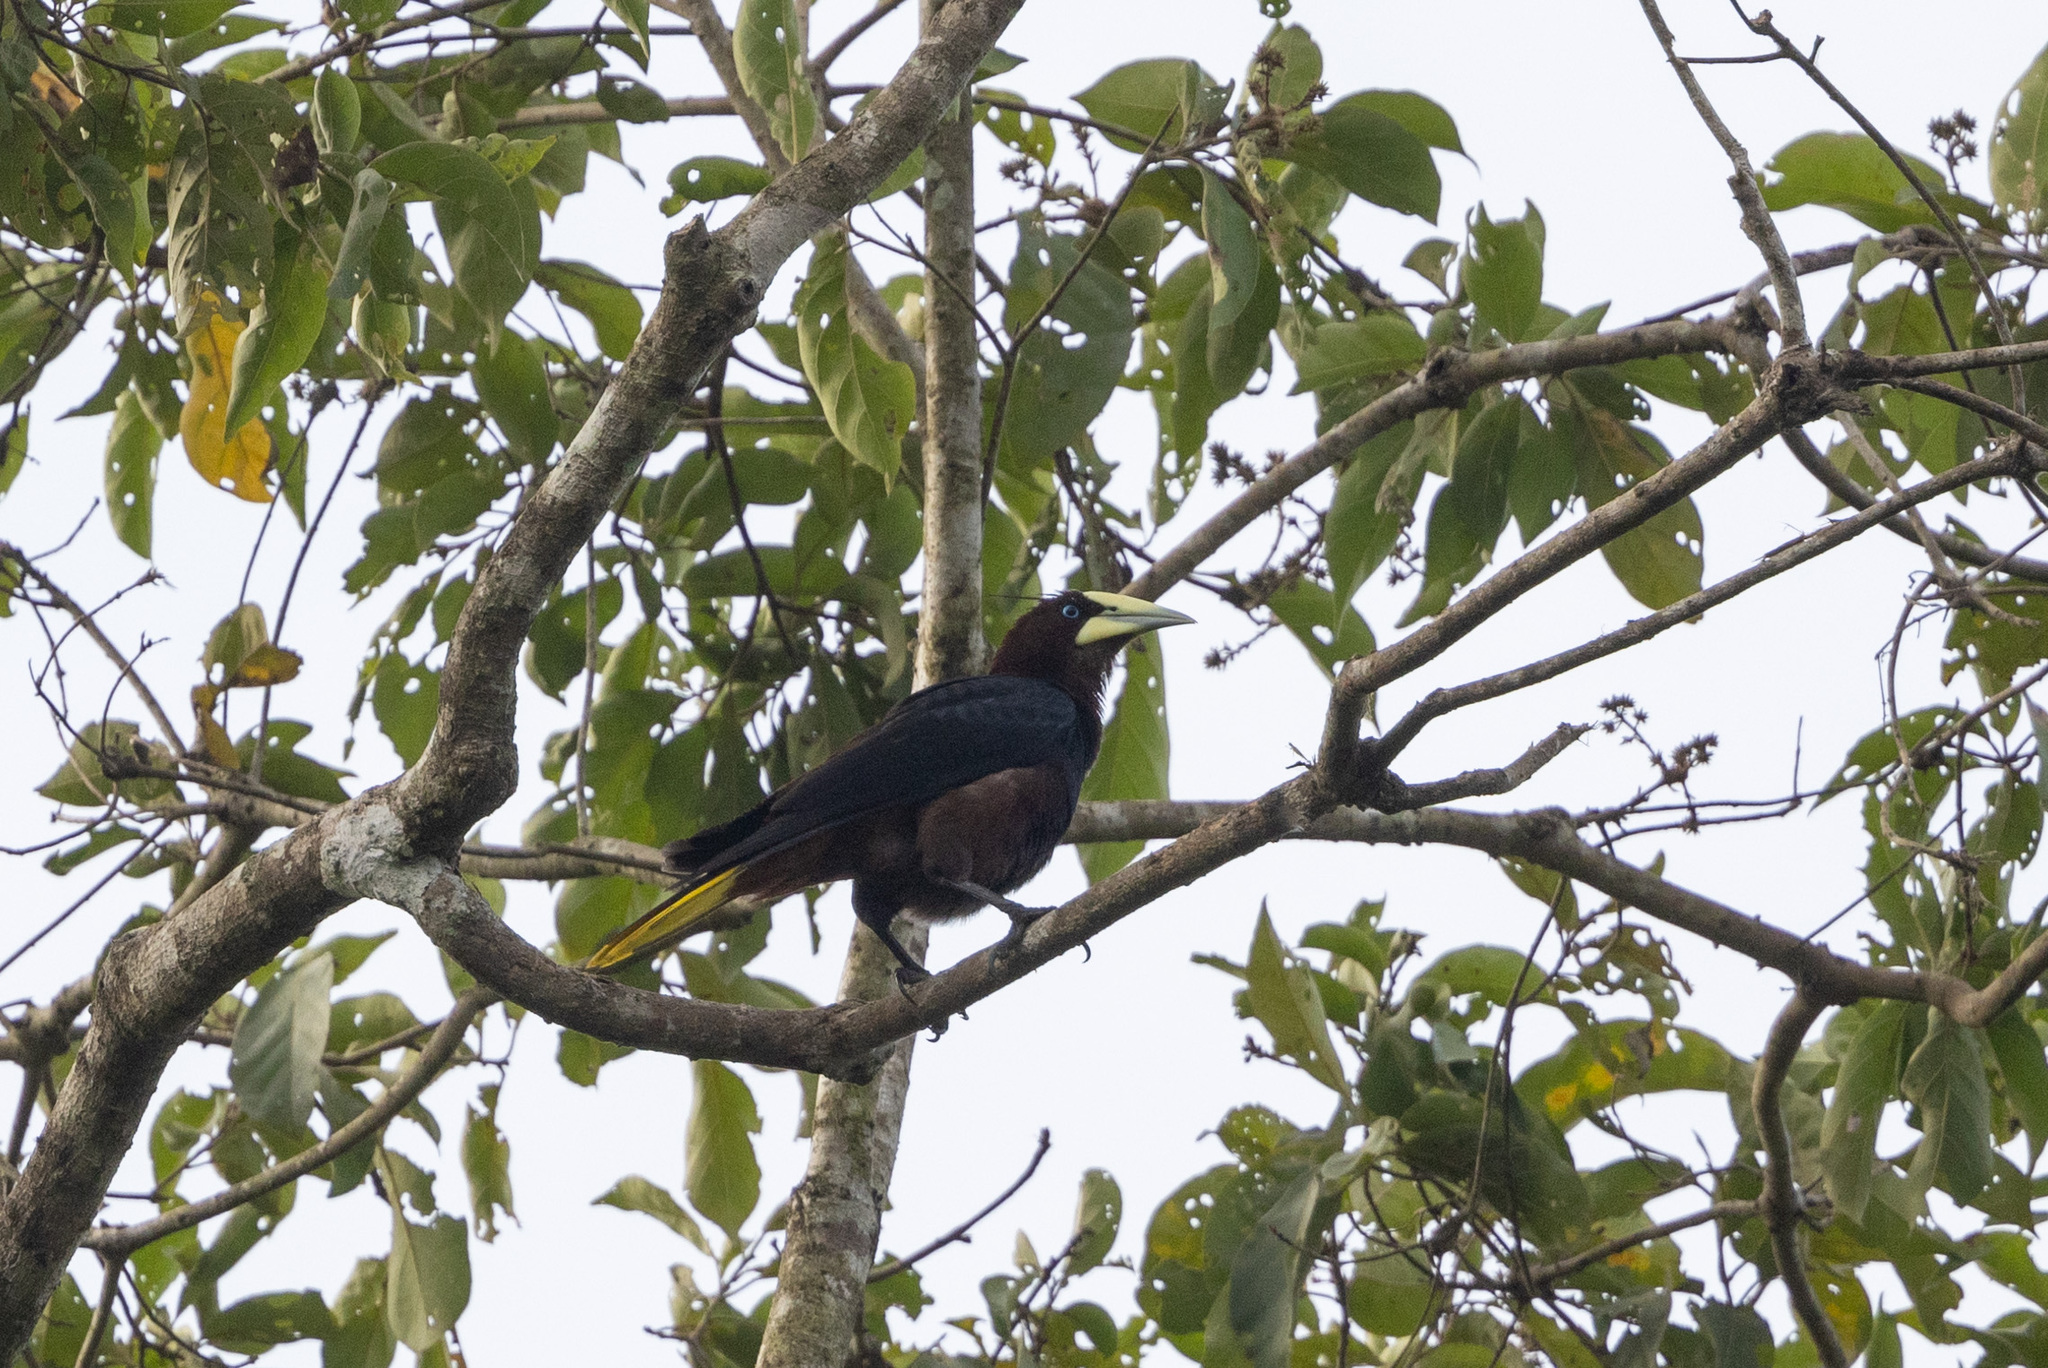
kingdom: Animalia
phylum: Chordata
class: Aves
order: Passeriformes
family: Icteridae
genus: Psarocolius
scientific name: Psarocolius wagleri
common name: Chestnut-headed oropendola
